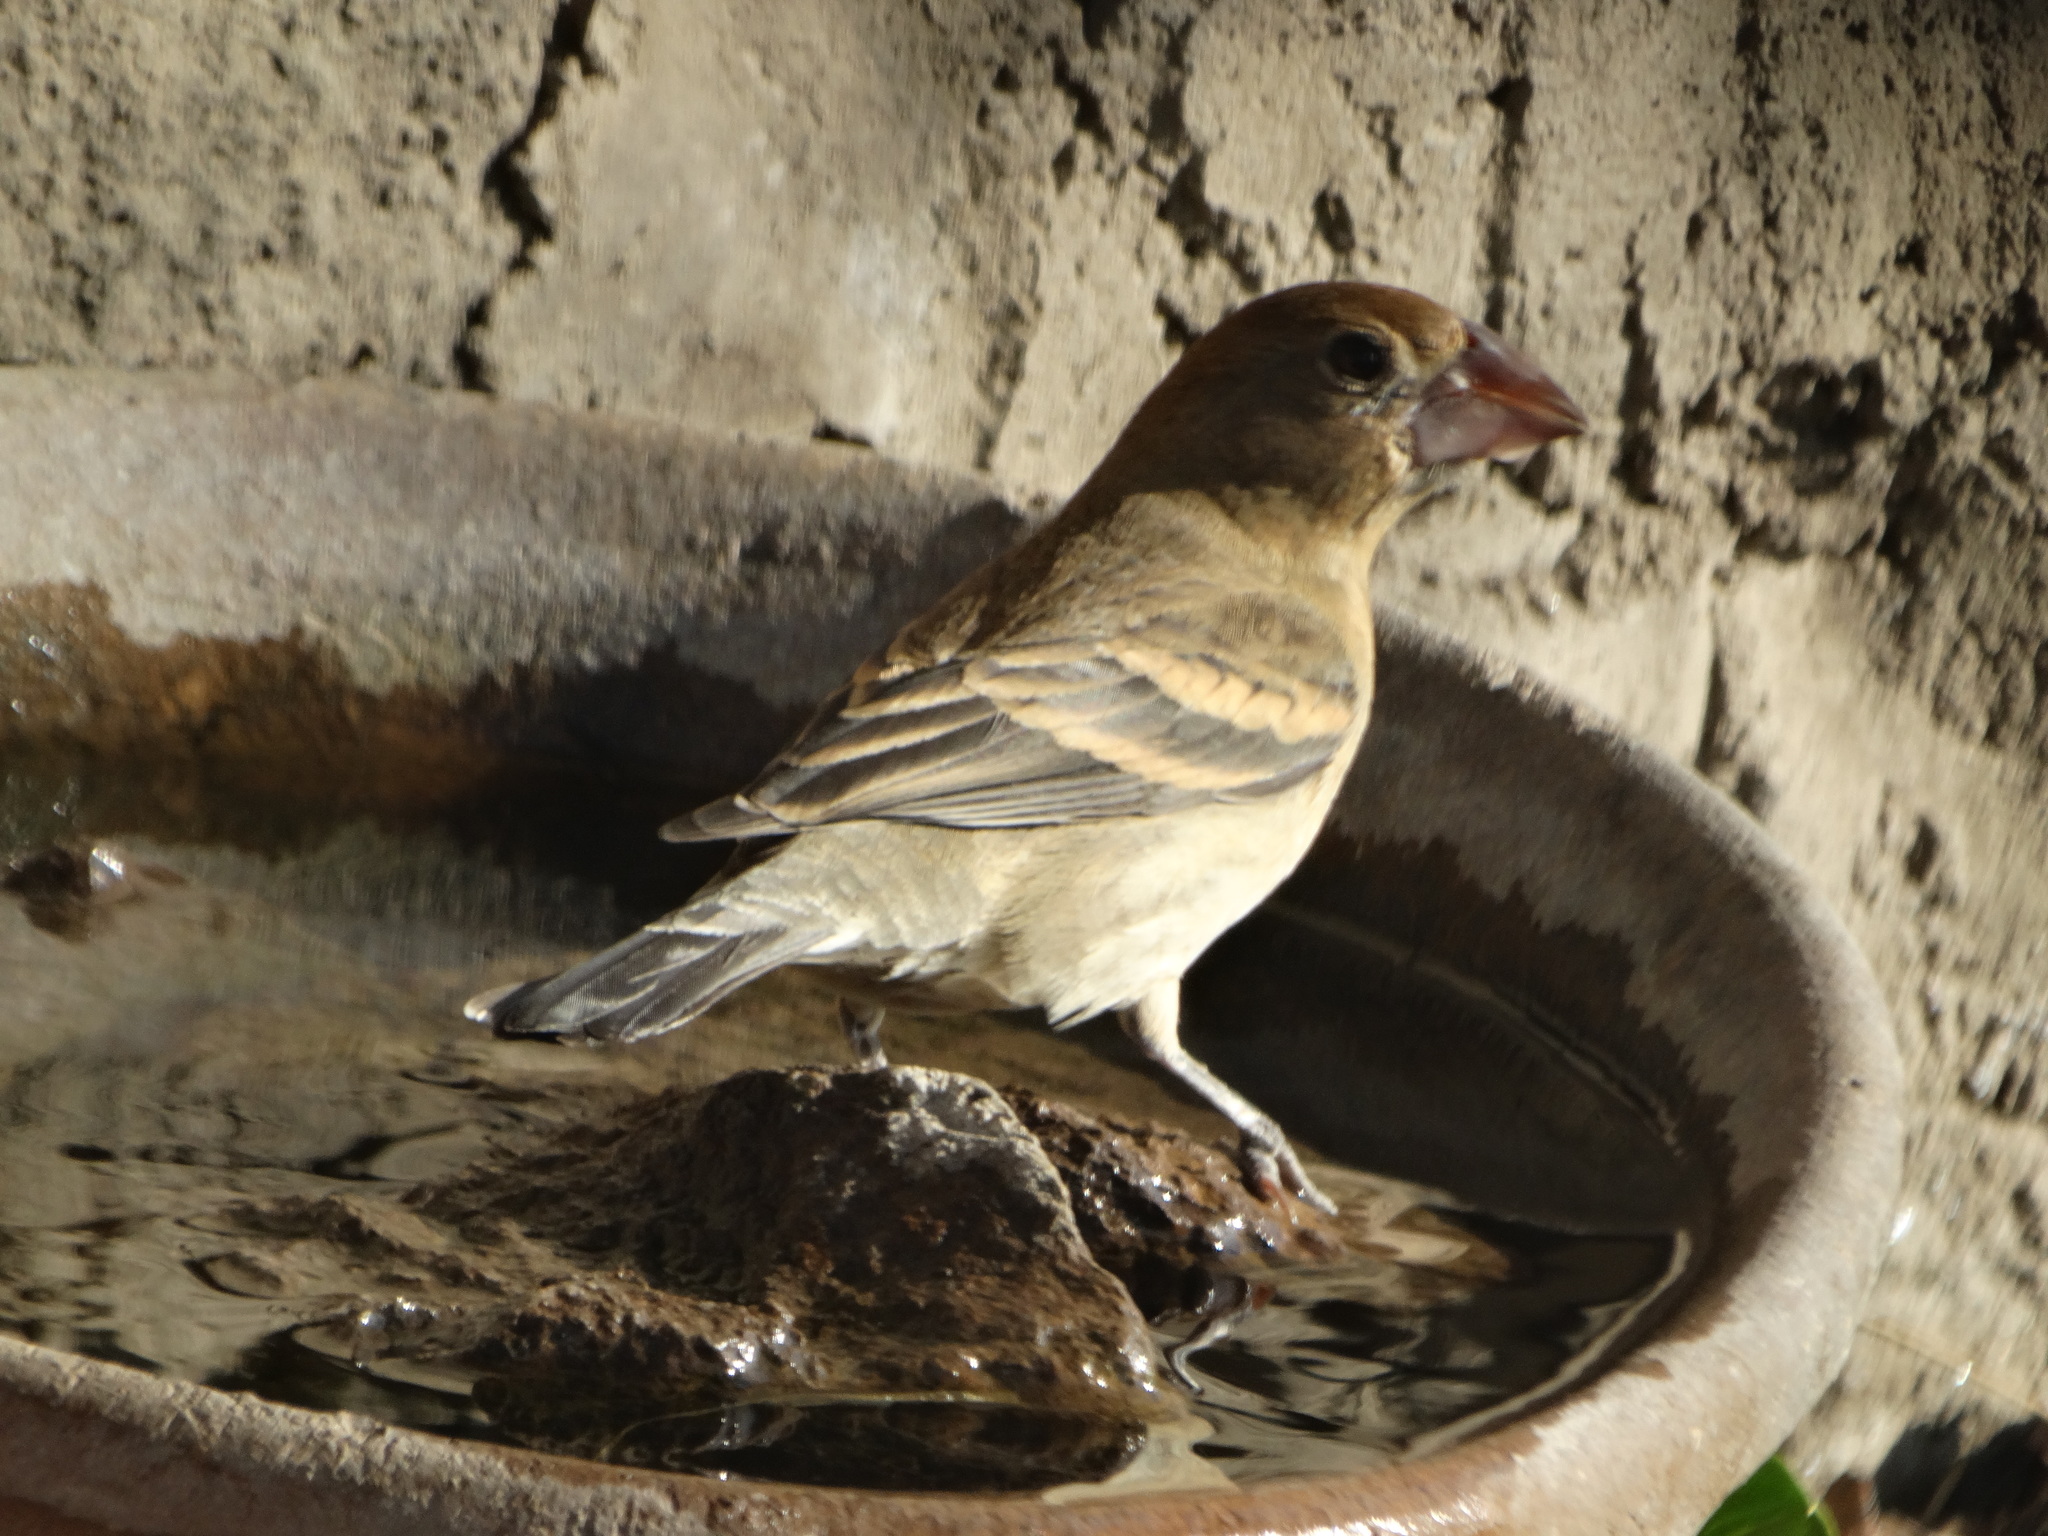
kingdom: Animalia
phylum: Chordata
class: Aves
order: Passeriformes
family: Cardinalidae
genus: Passerina
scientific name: Passerina caerulea
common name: Blue grosbeak
